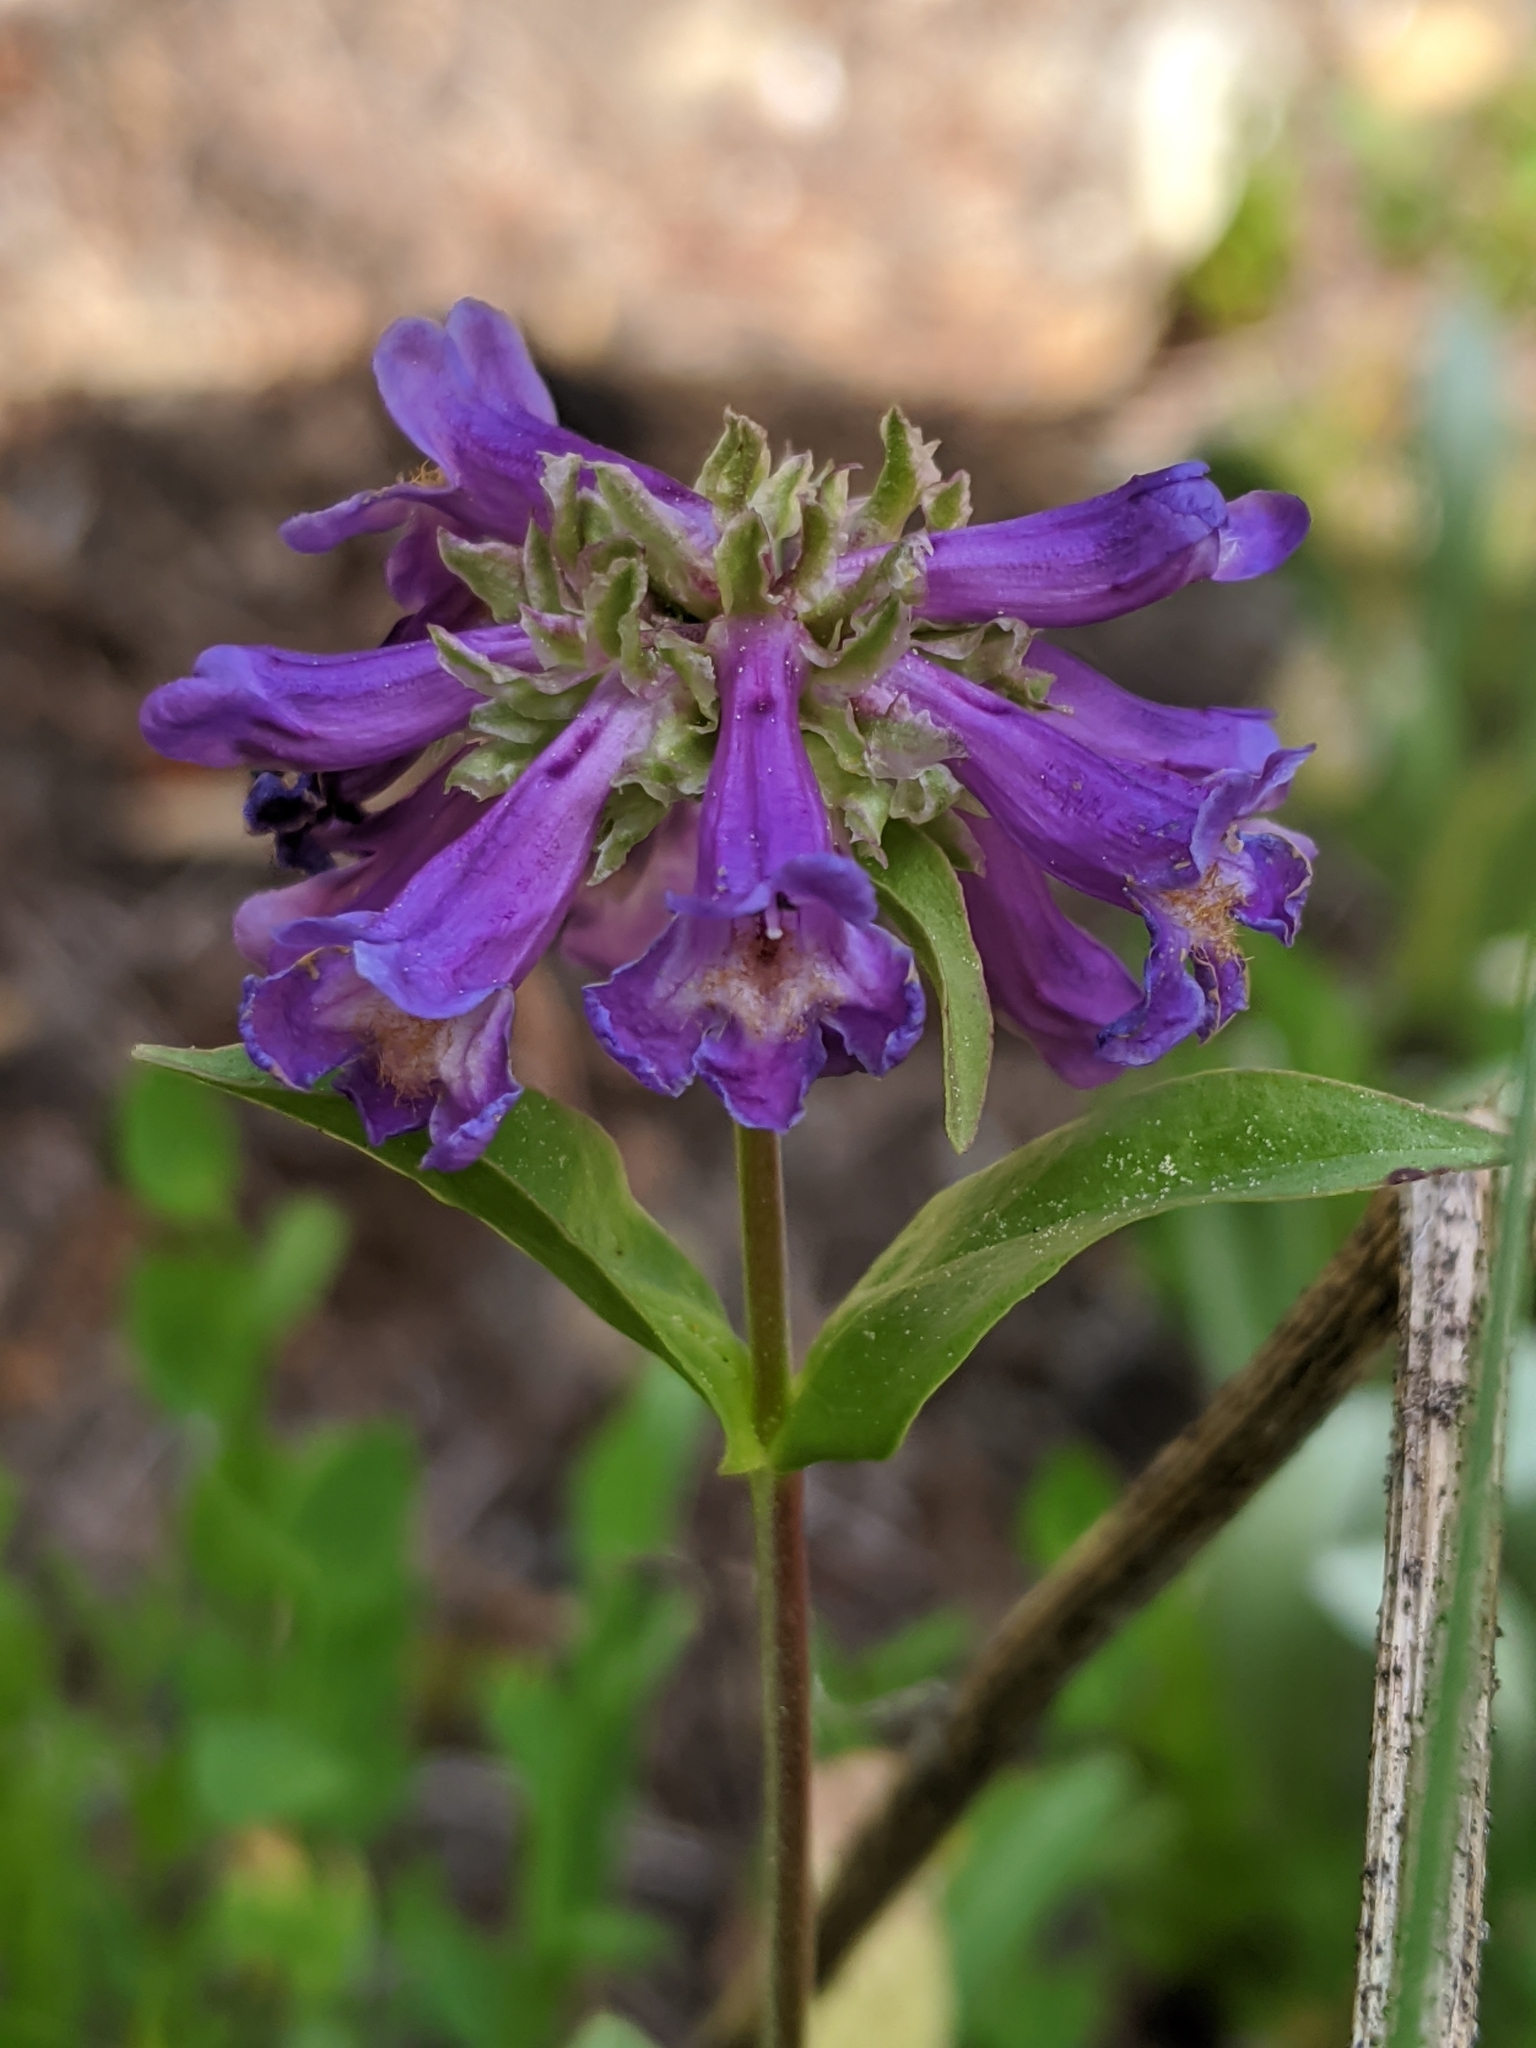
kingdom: Plantae
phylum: Tracheophyta
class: Magnoliopsida
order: Lamiales
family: Plantaginaceae
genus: Penstemon
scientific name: Penstemon procerus
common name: Small-flower penstemon
